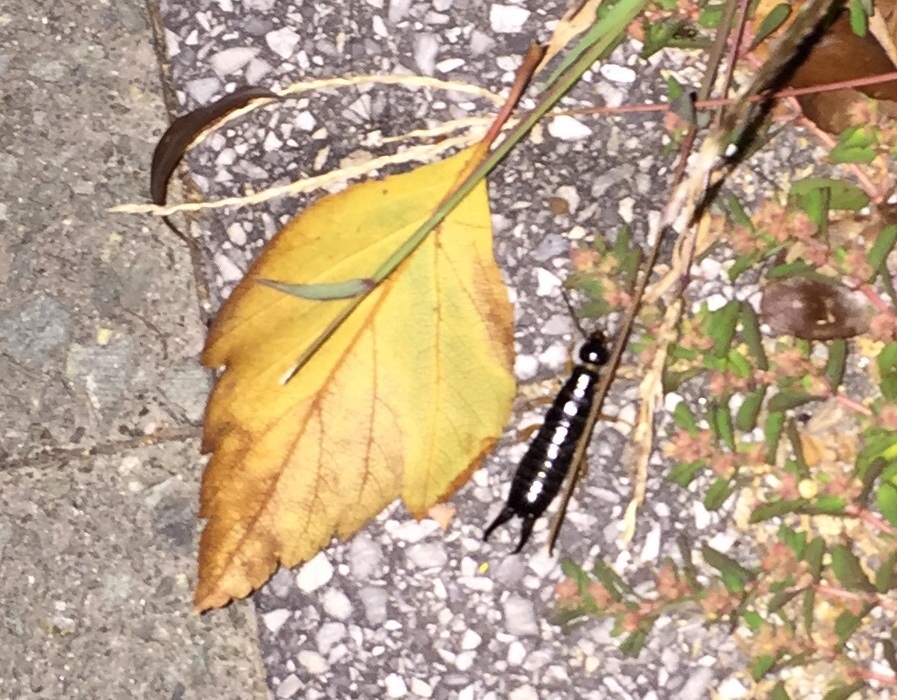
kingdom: Animalia
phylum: Arthropoda
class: Insecta
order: Dermaptera
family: Anisolabididae
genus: Anisolabis
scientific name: Anisolabis maritima
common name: Maritime earwig
